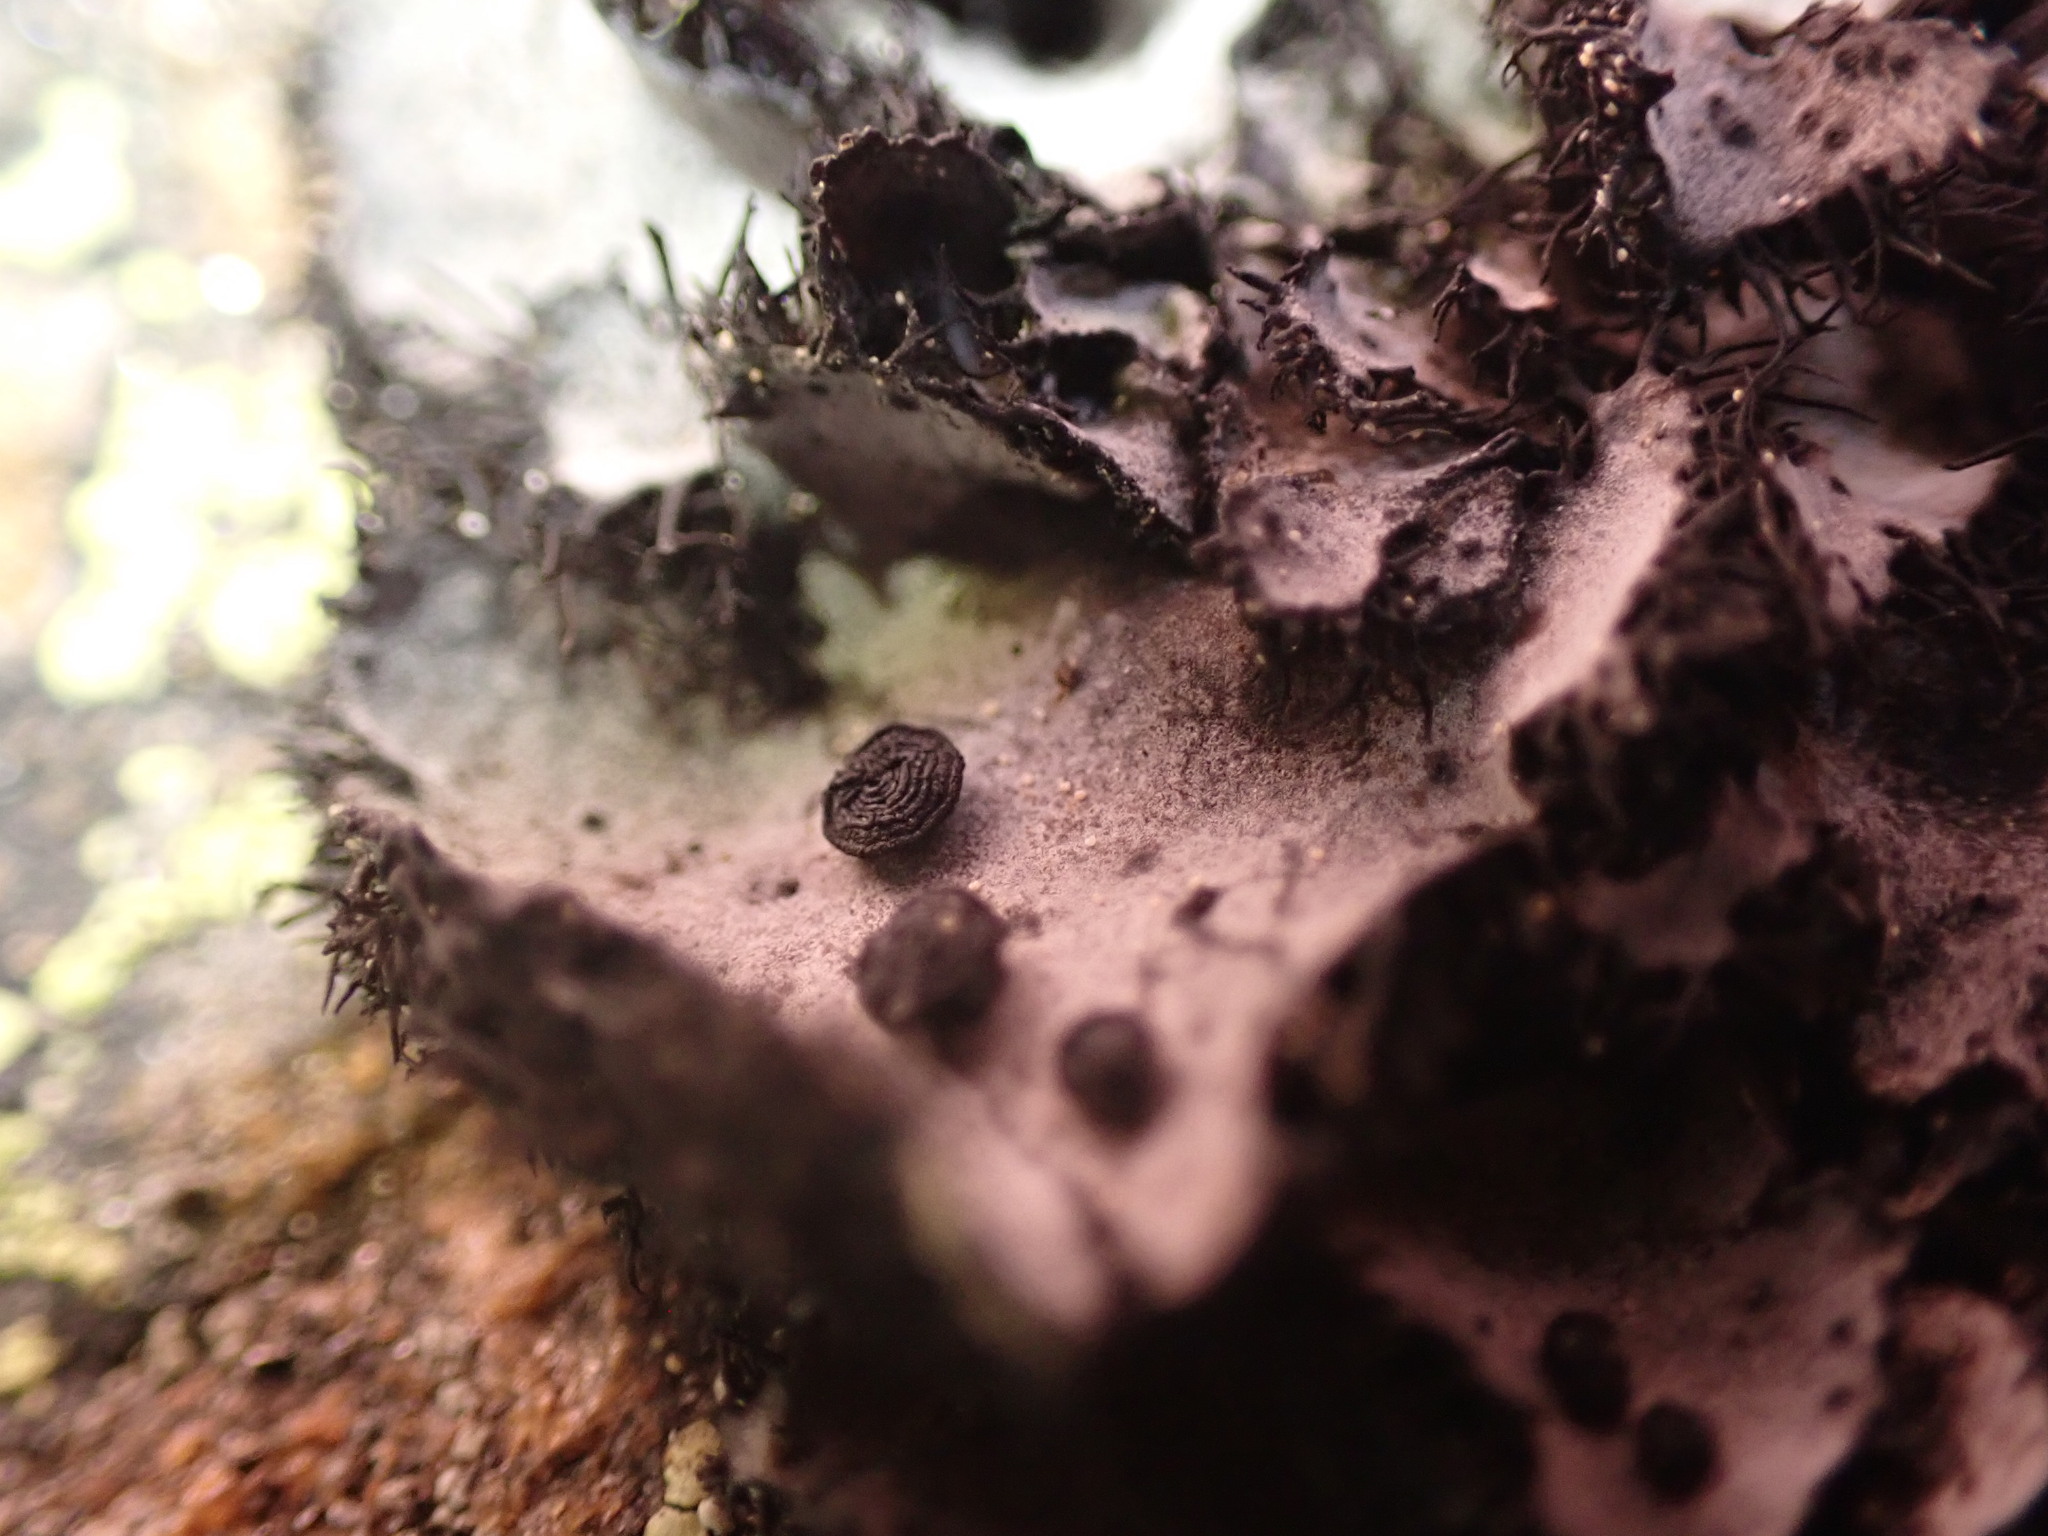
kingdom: Fungi
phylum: Ascomycota
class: Lecanoromycetes
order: Umbilicariales
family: Umbilicariaceae
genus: Umbilicaria
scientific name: Umbilicaria cylindrica
